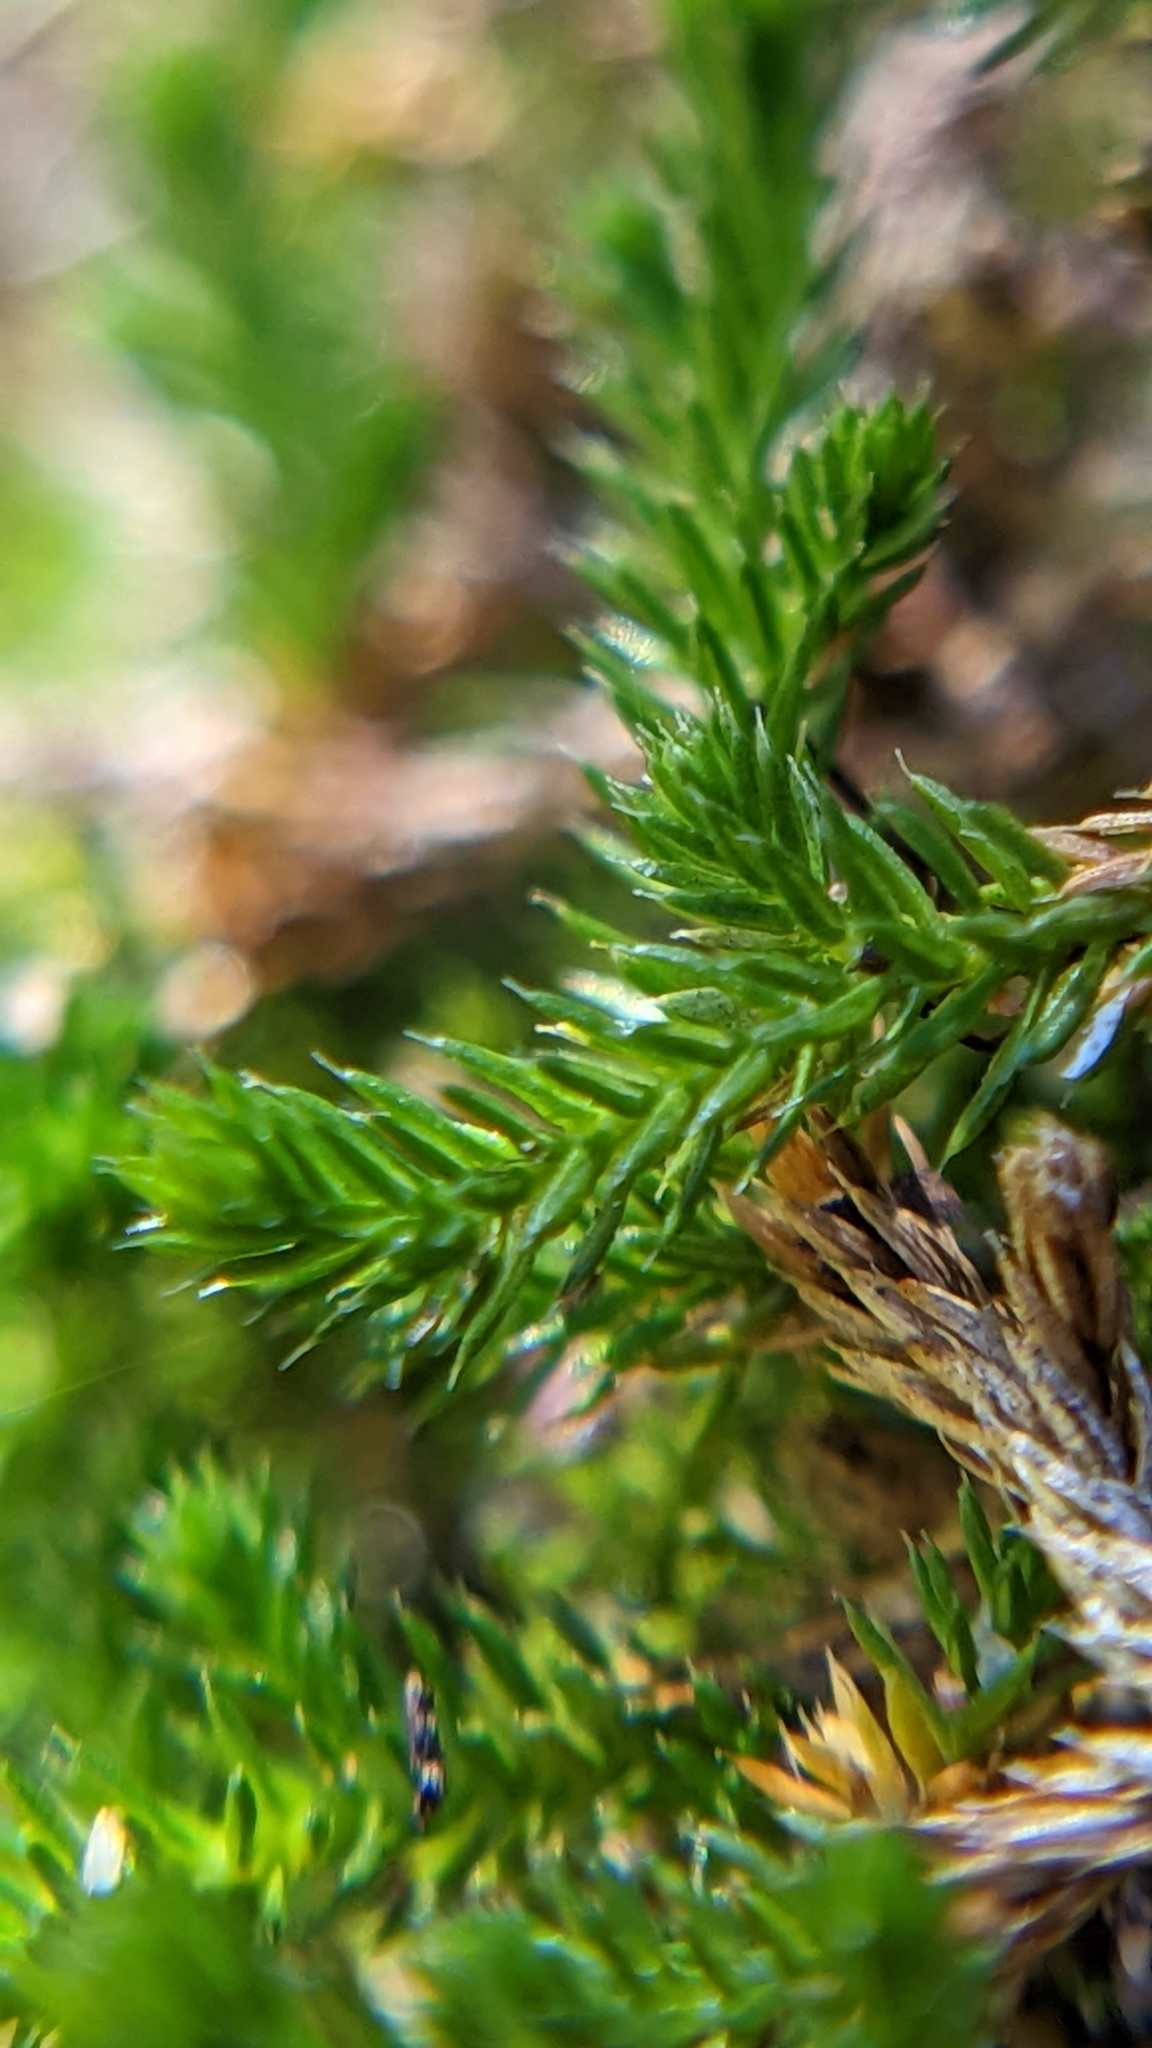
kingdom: Plantae
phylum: Tracheophyta
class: Lycopodiopsida
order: Selaginellales
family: Selaginellaceae
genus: Selaginella
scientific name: Selaginella underwoodii
